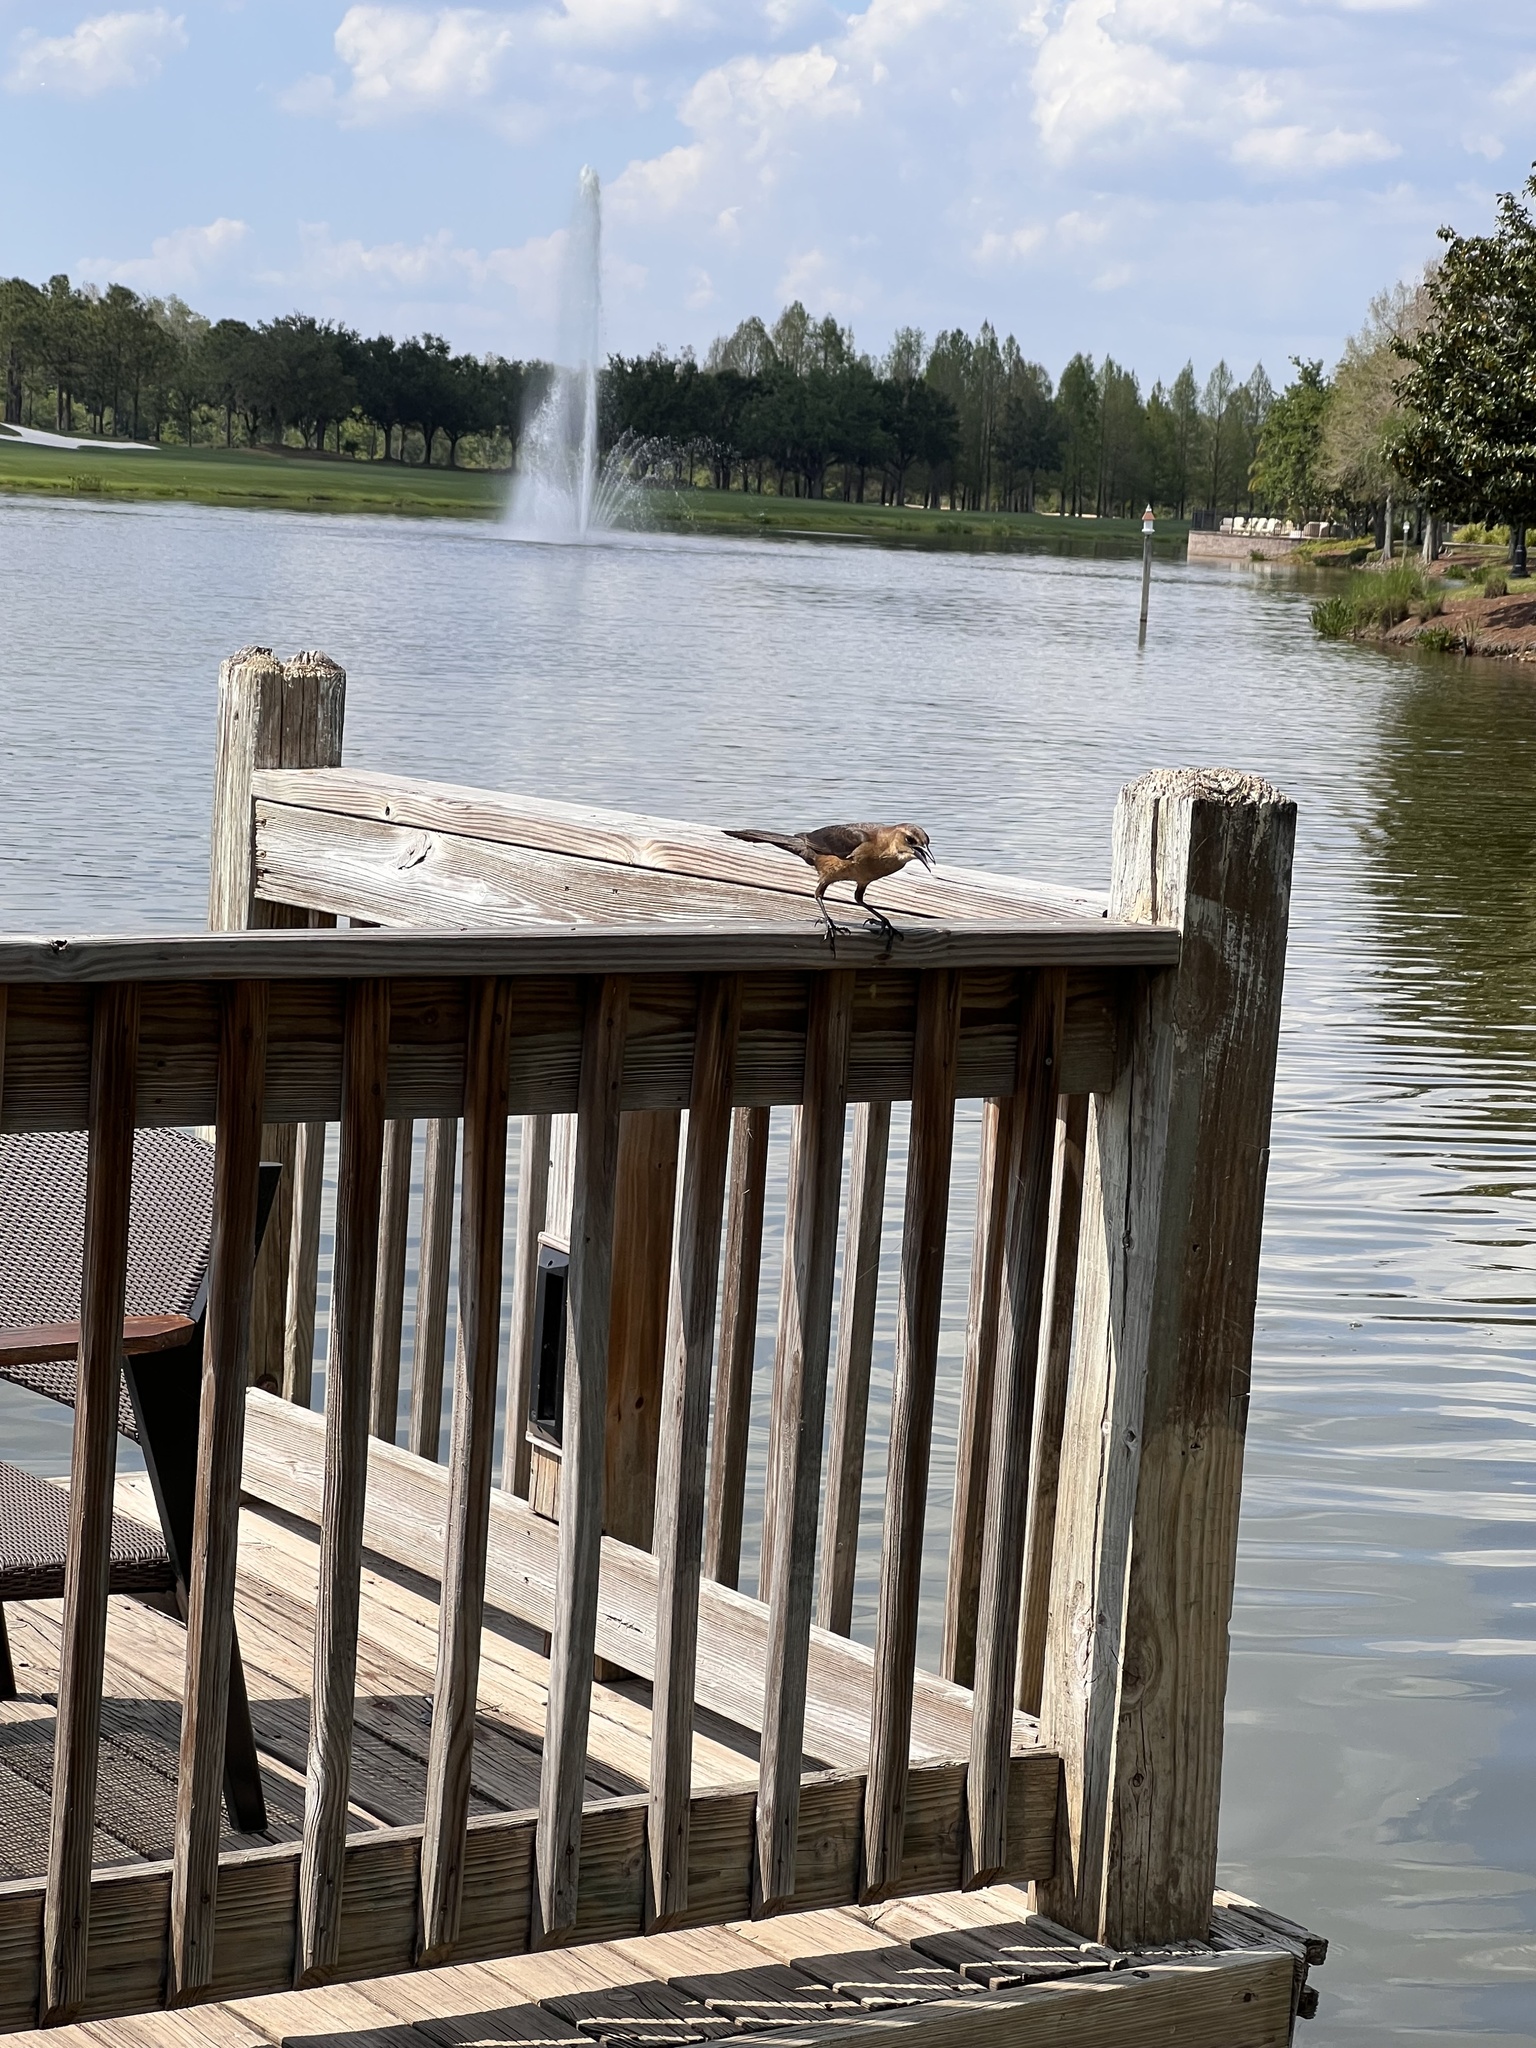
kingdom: Animalia
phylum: Chordata
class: Aves
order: Passeriformes
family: Icteridae
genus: Quiscalus
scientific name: Quiscalus major
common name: Boat-tailed grackle
